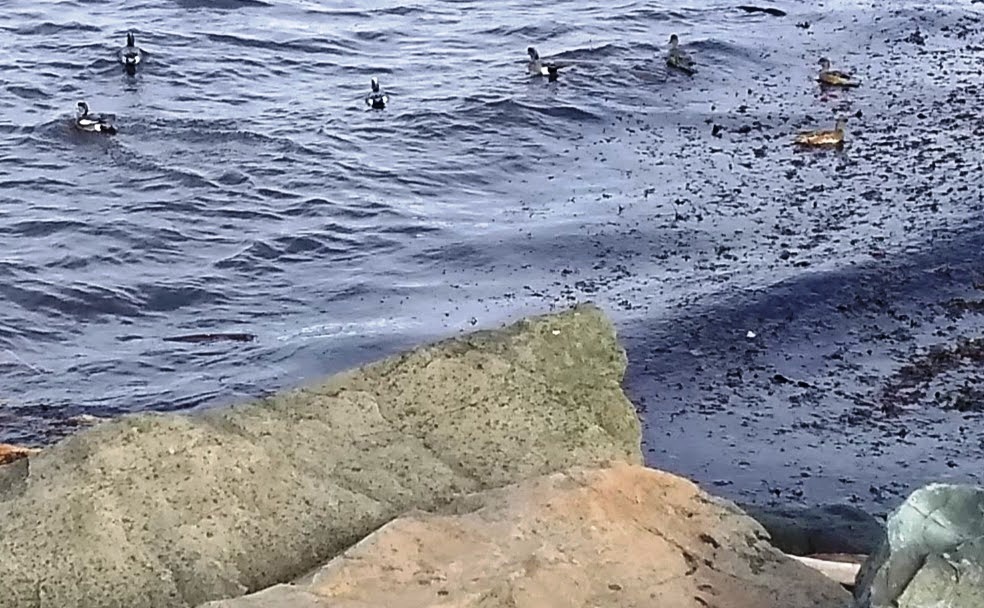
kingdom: Animalia
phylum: Chordata
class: Aves
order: Anseriformes
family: Anatidae
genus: Mareca
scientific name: Mareca americana
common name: American wigeon
